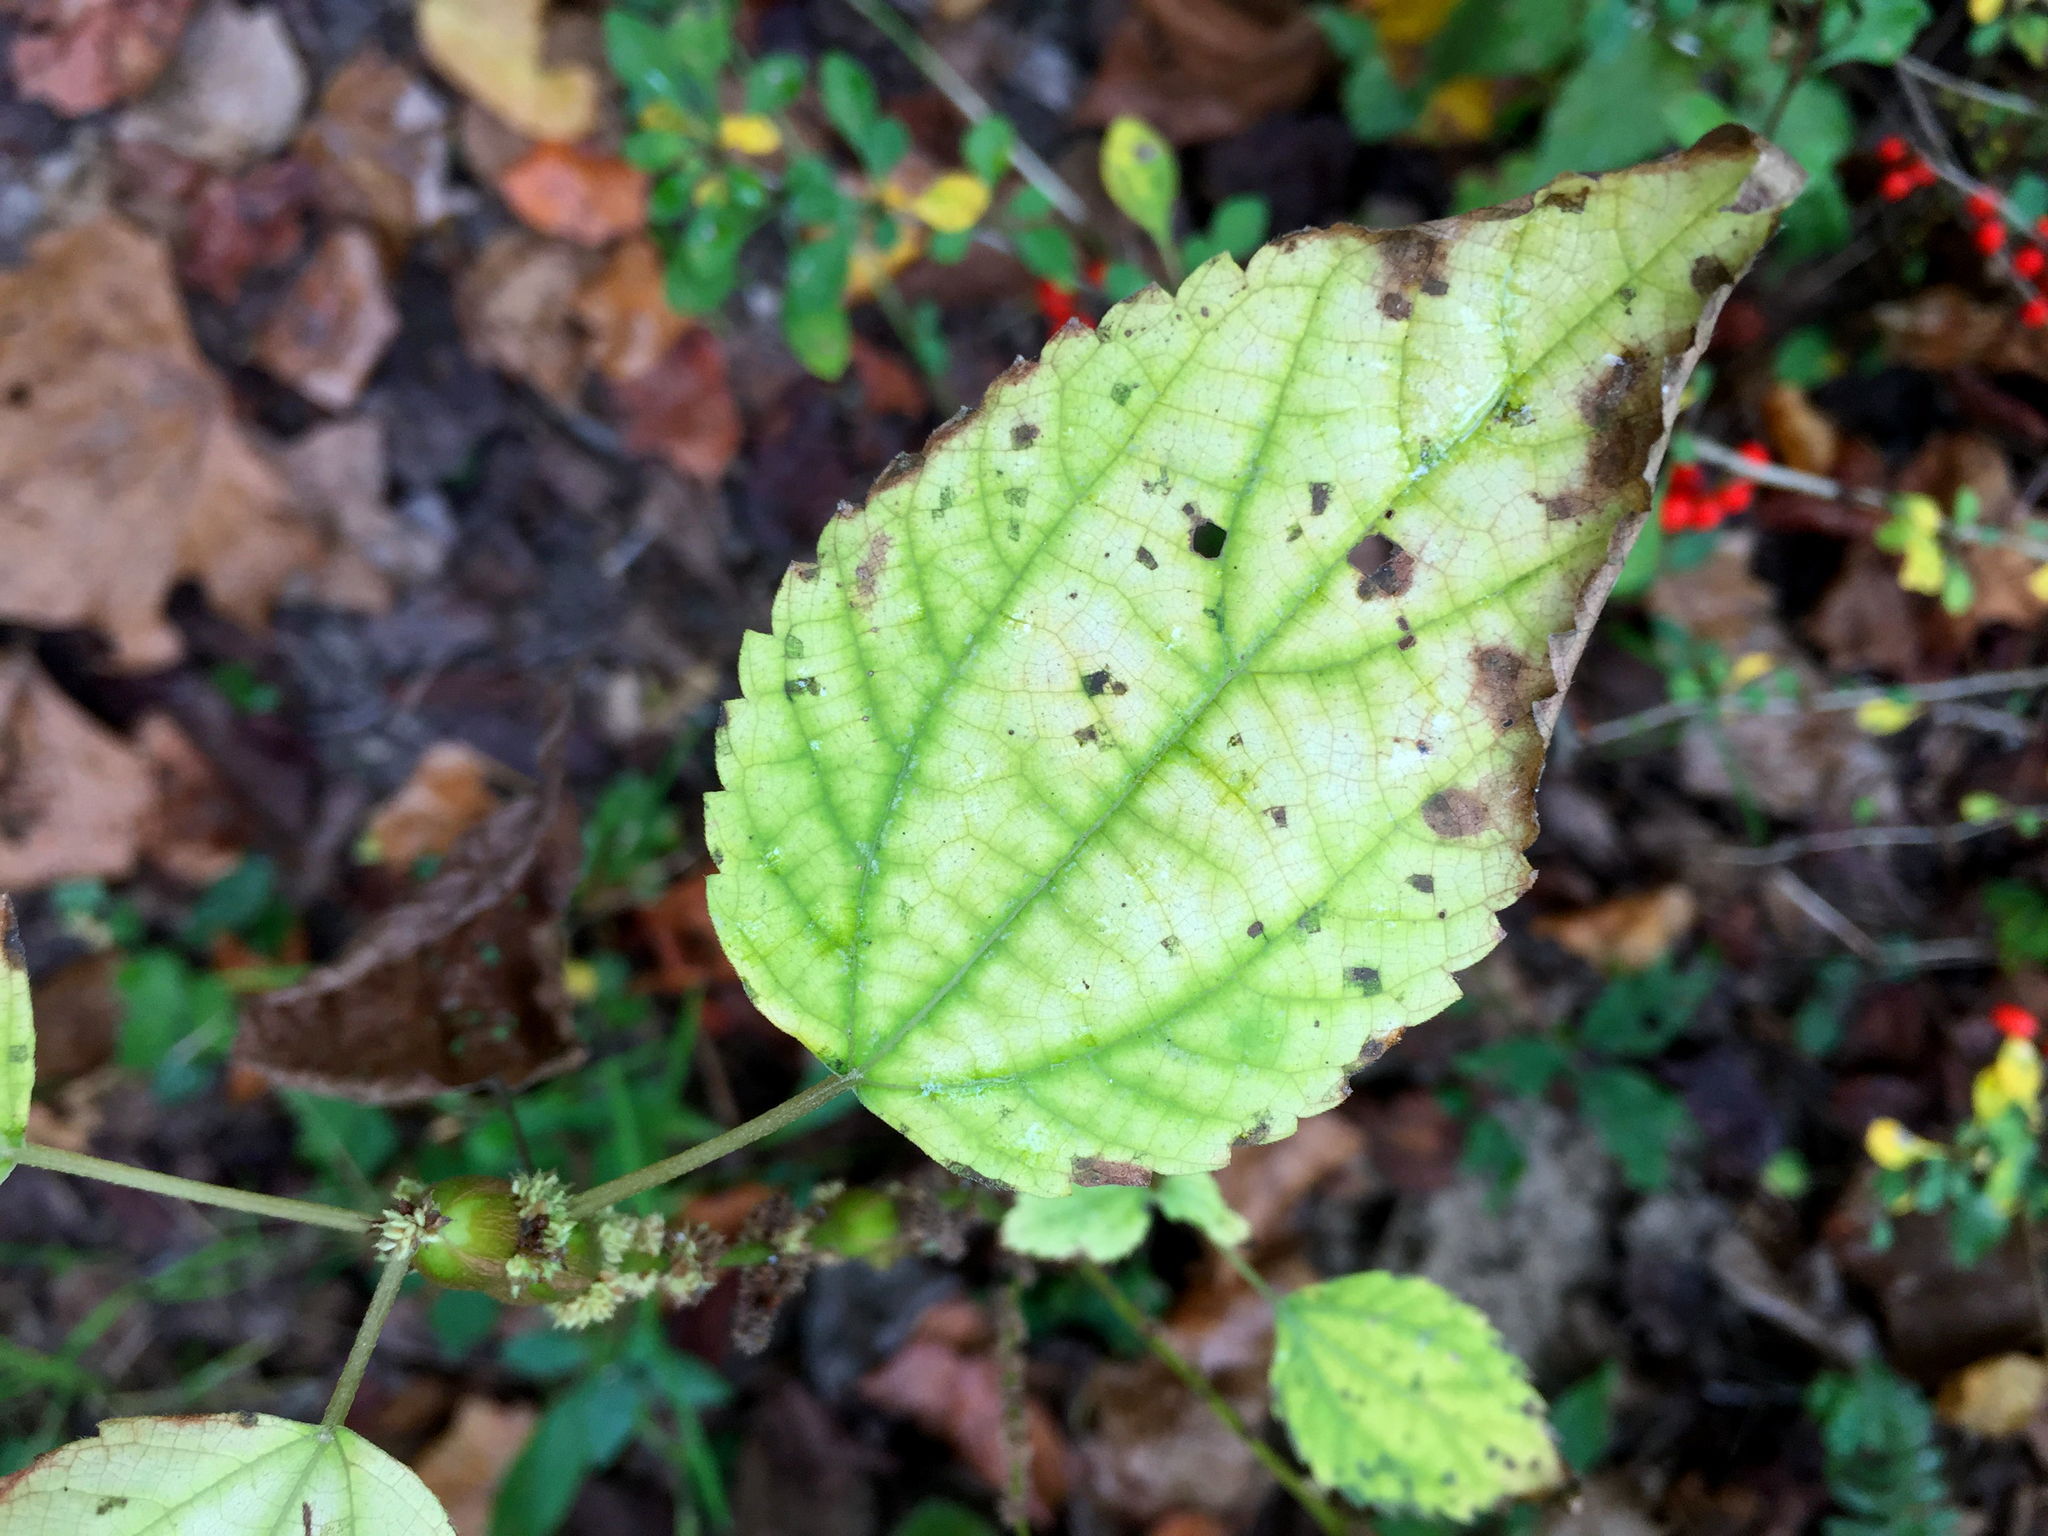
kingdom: Plantae
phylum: Tracheophyta
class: Magnoliopsida
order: Rosales
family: Urticaceae
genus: Boehmeria
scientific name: Boehmeria cylindrica
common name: Bog-hemp
